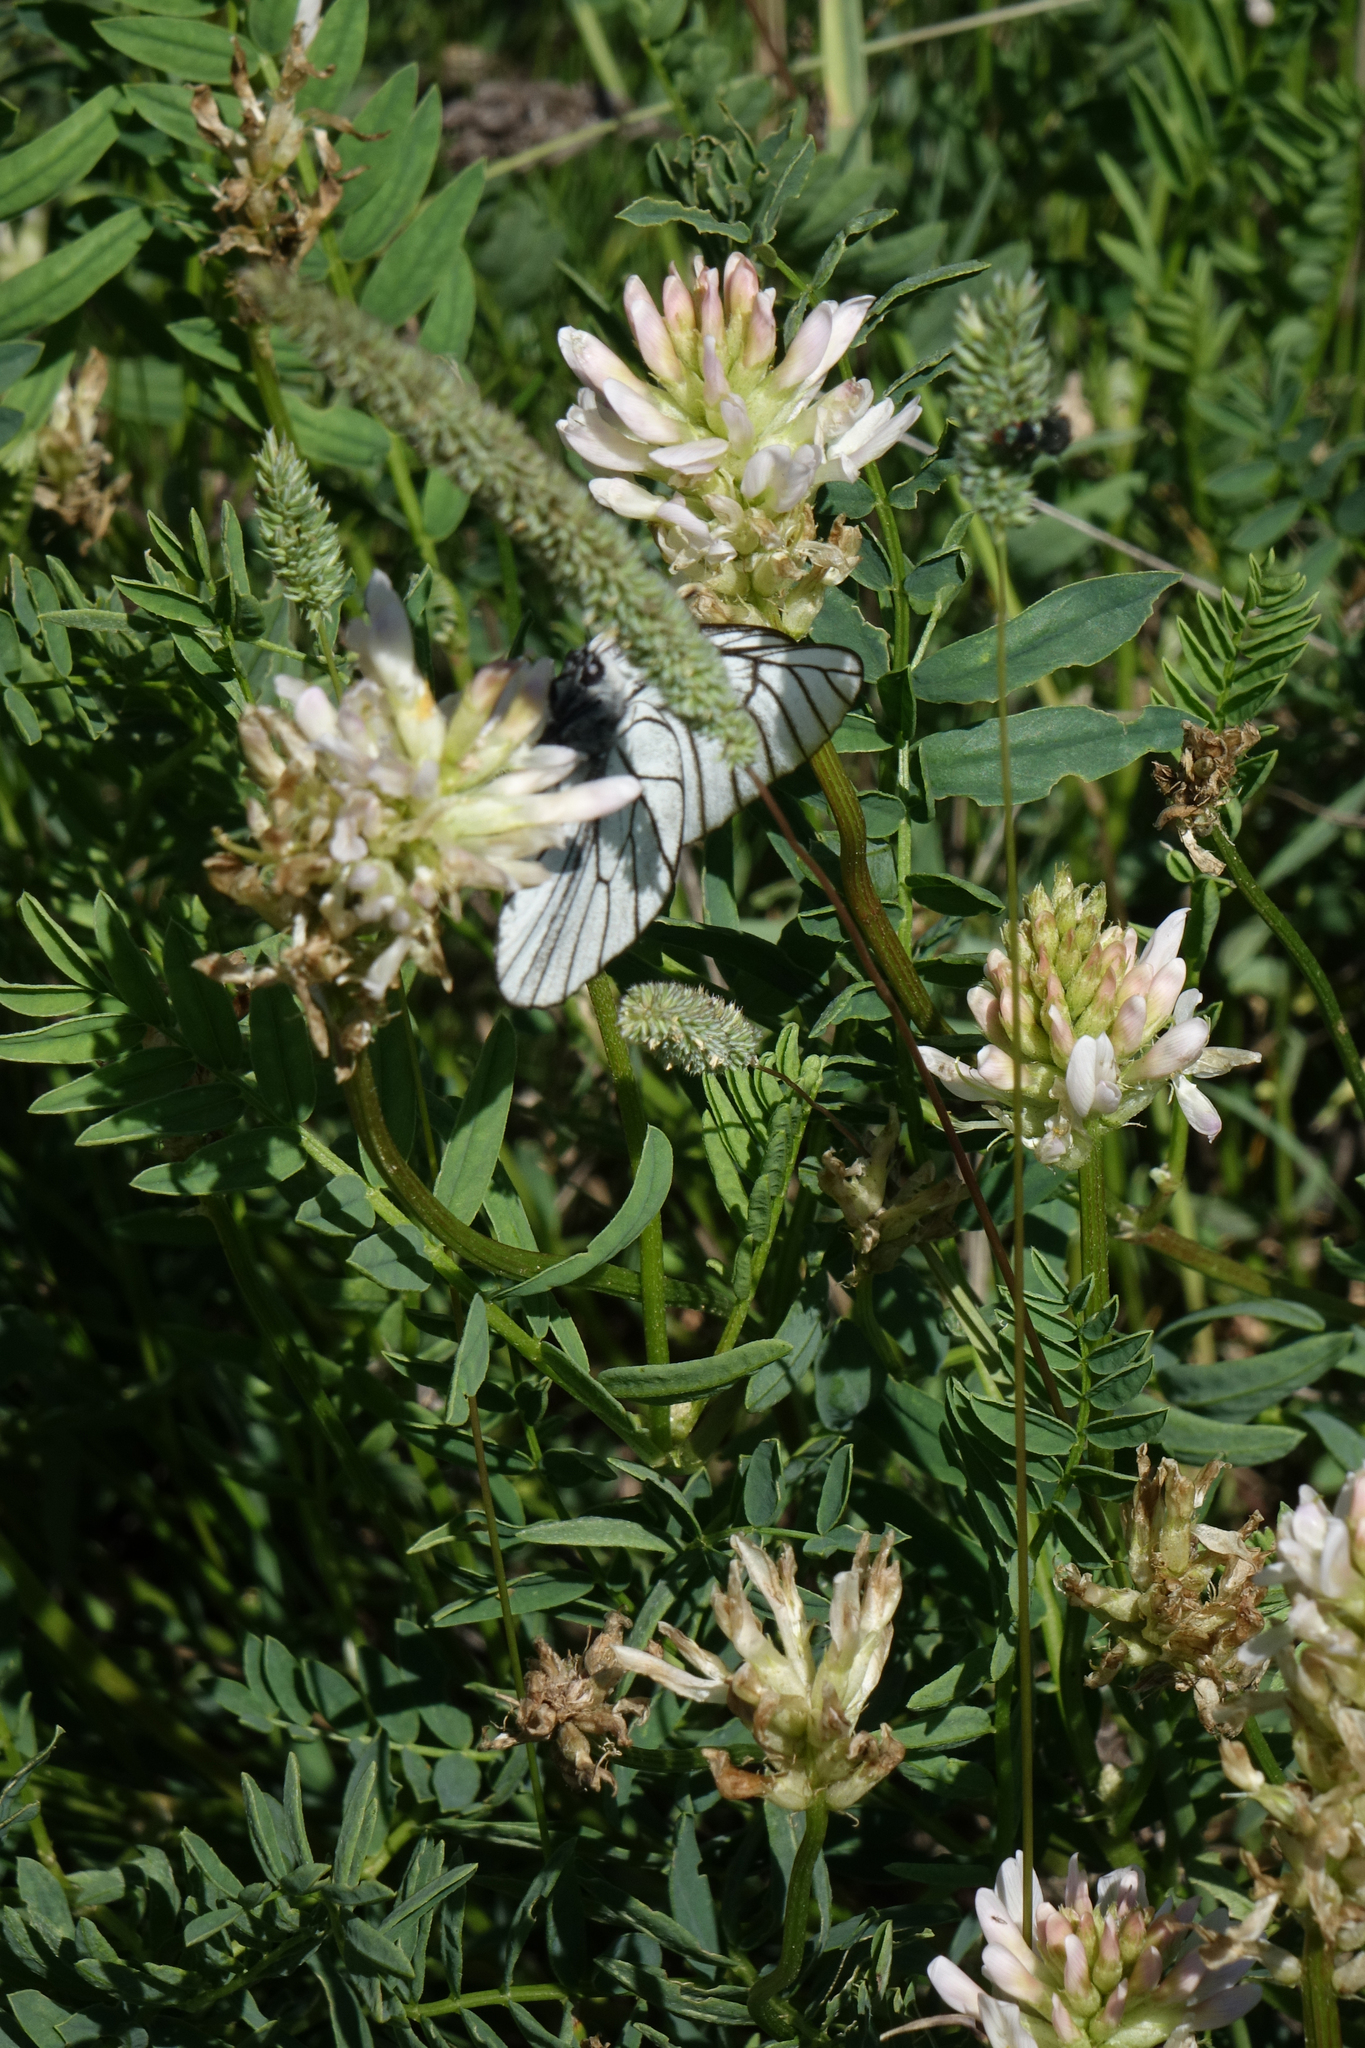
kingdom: Animalia
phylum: Arthropoda
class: Insecta
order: Lepidoptera
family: Pieridae
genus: Aporia
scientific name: Aporia crataegi
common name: Black-veined white
